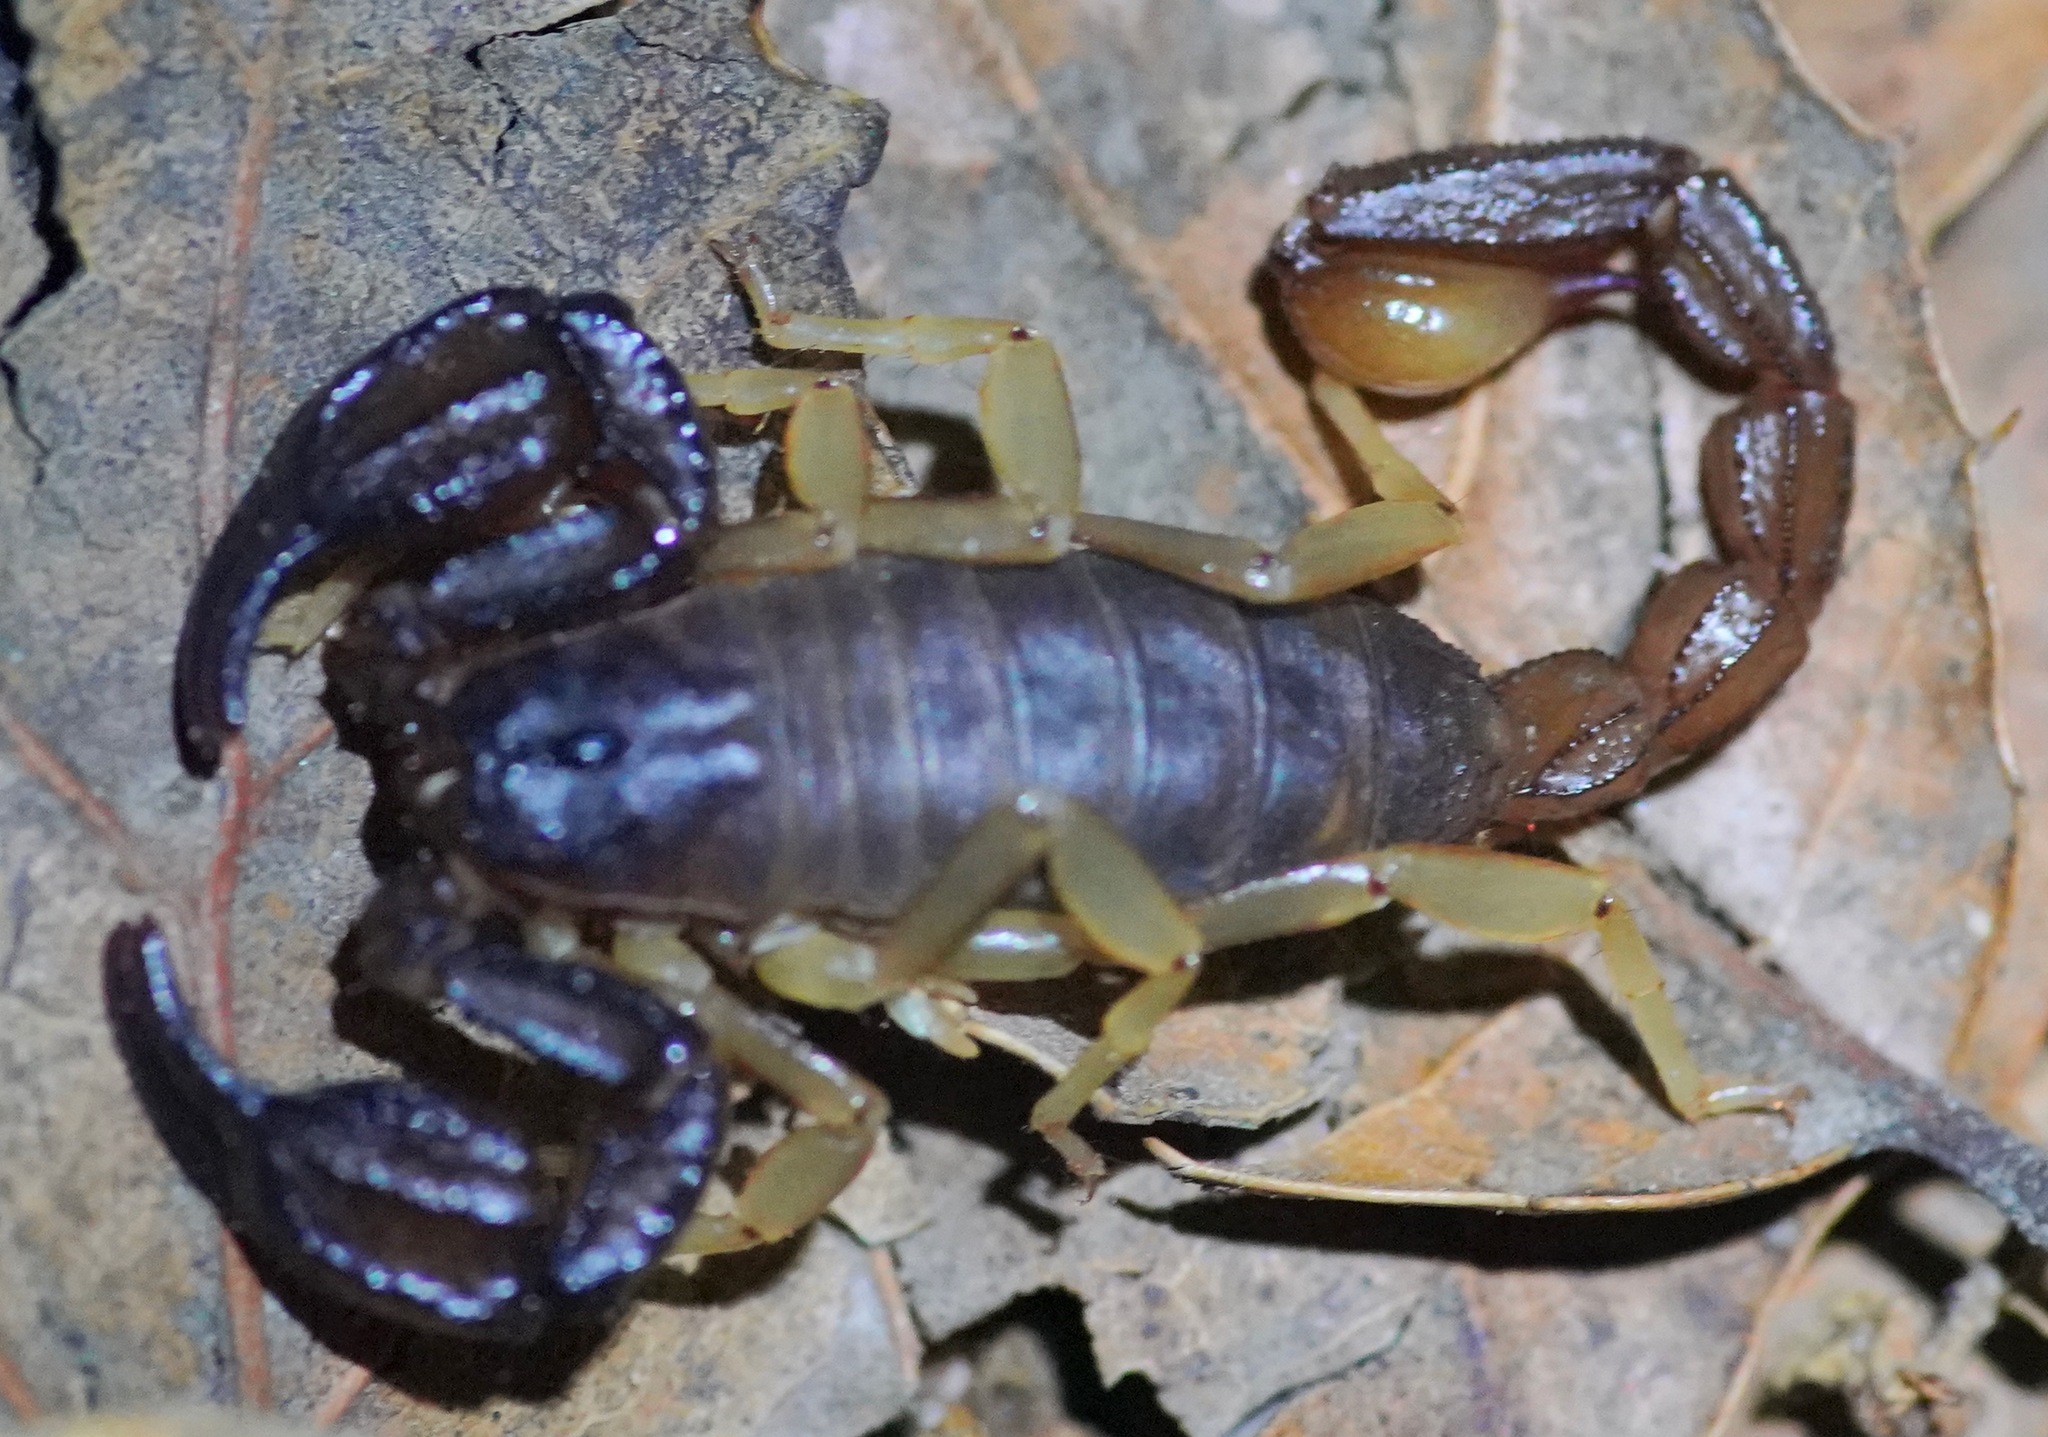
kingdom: Animalia
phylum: Arthropoda
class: Arachnida
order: Scorpiones
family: Chactidae
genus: Uroctonus
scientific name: Uroctonus mordax
